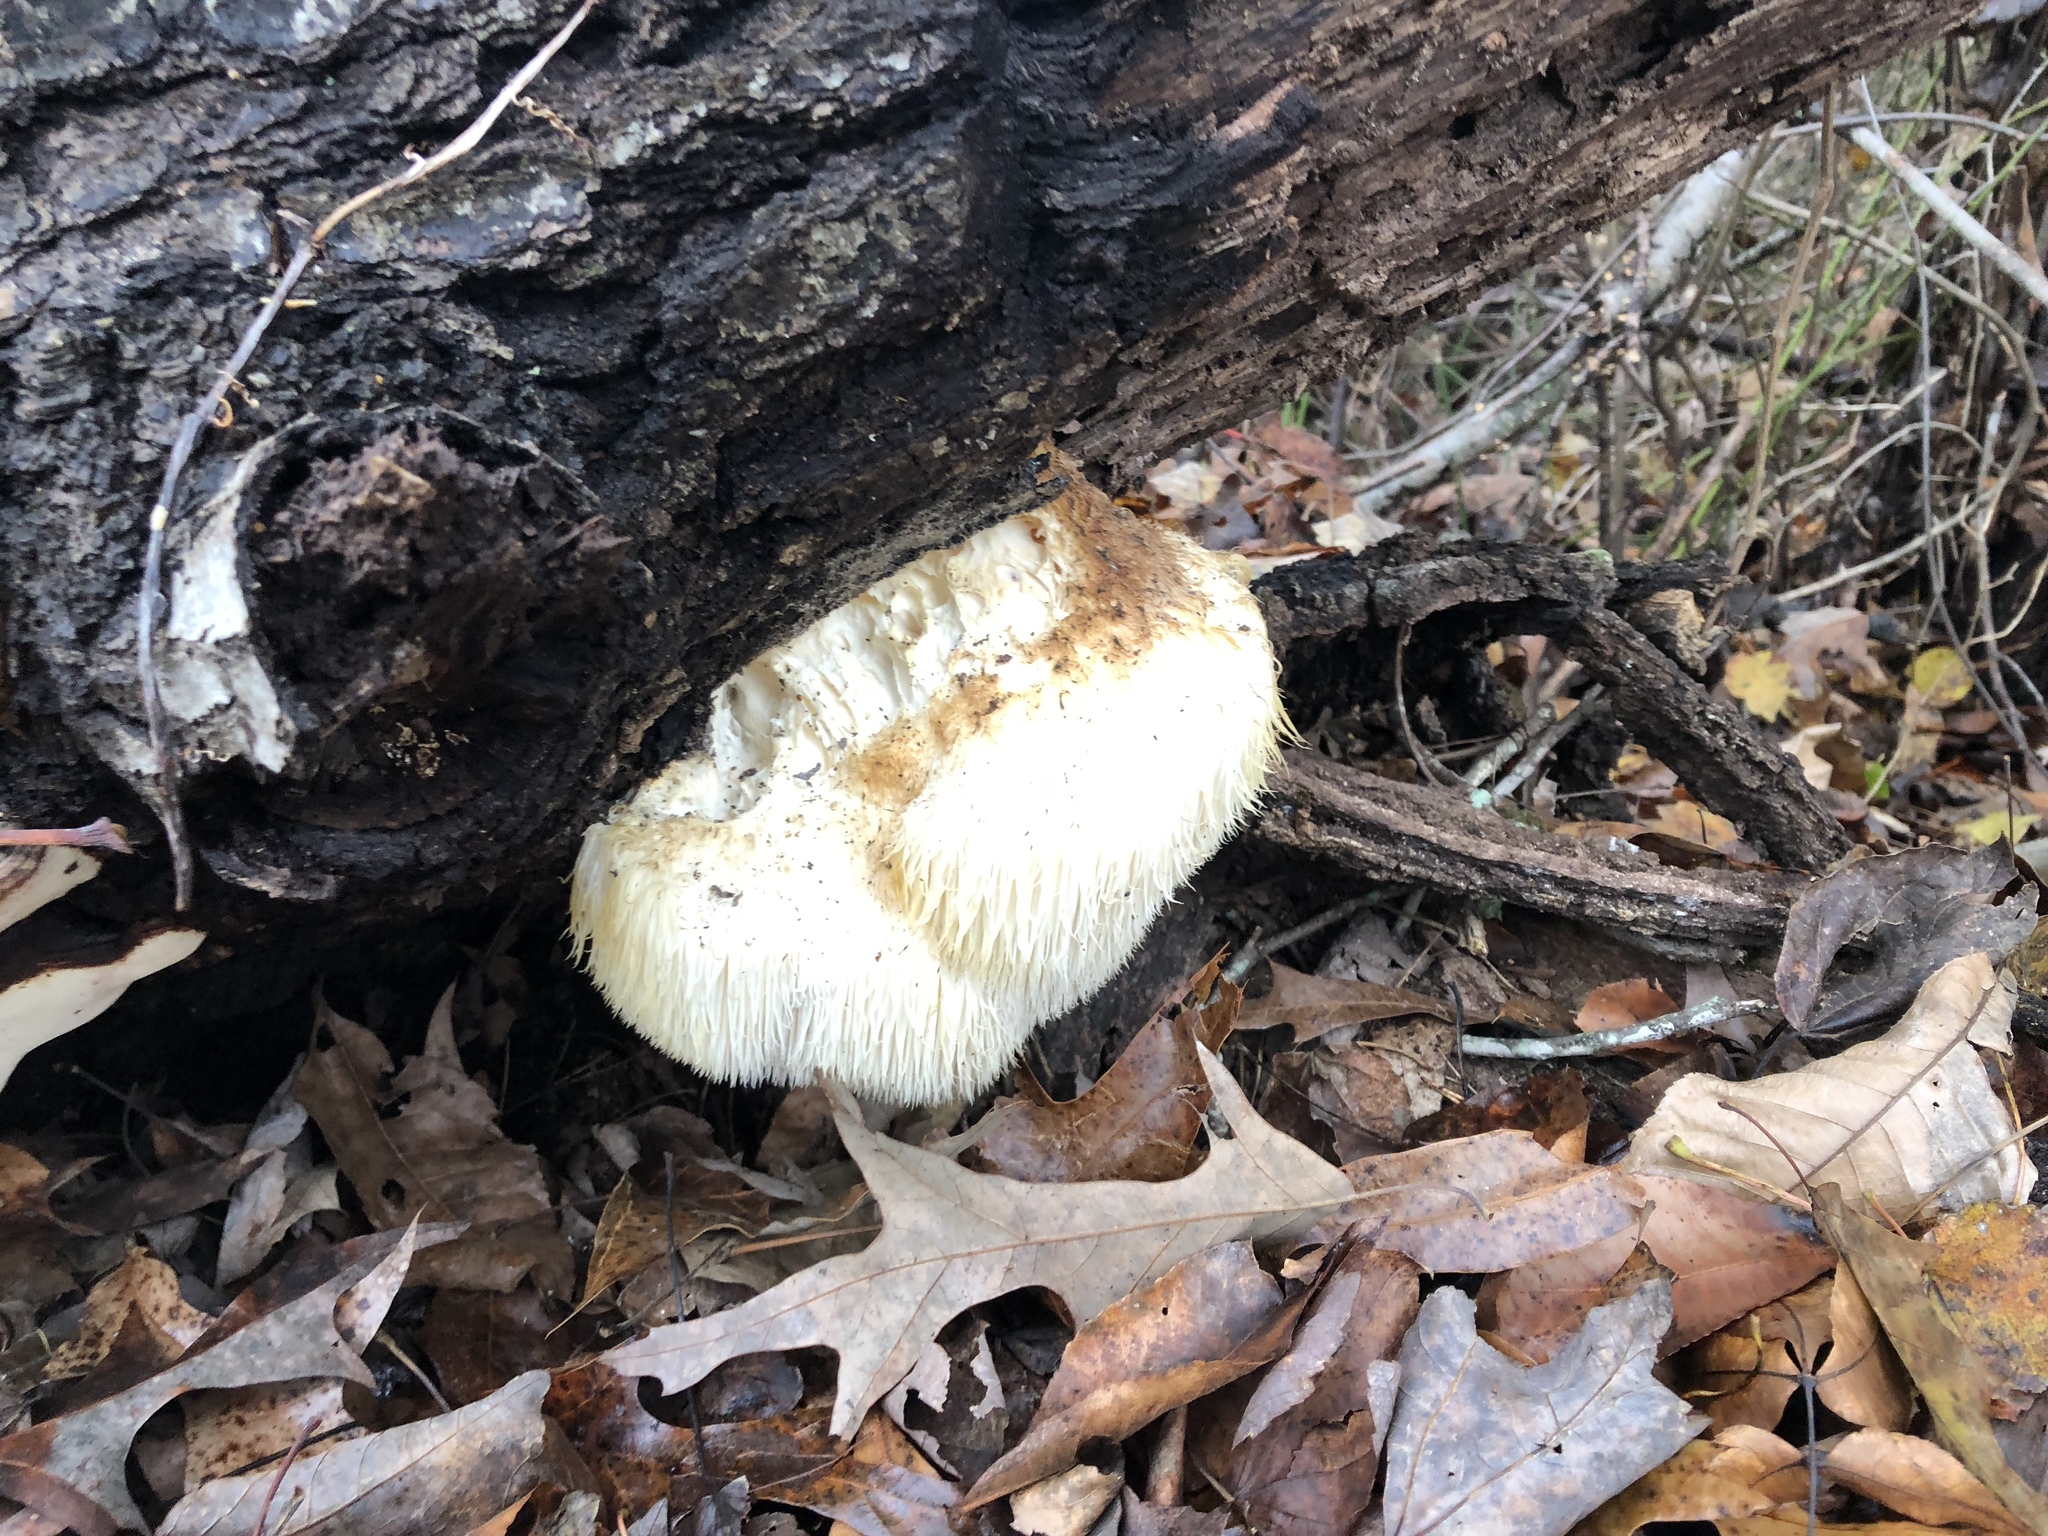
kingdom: Fungi
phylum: Basidiomycota
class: Agaricomycetes
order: Russulales
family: Hericiaceae
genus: Hericium
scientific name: Hericium erinaceus
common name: Bearded tooth
